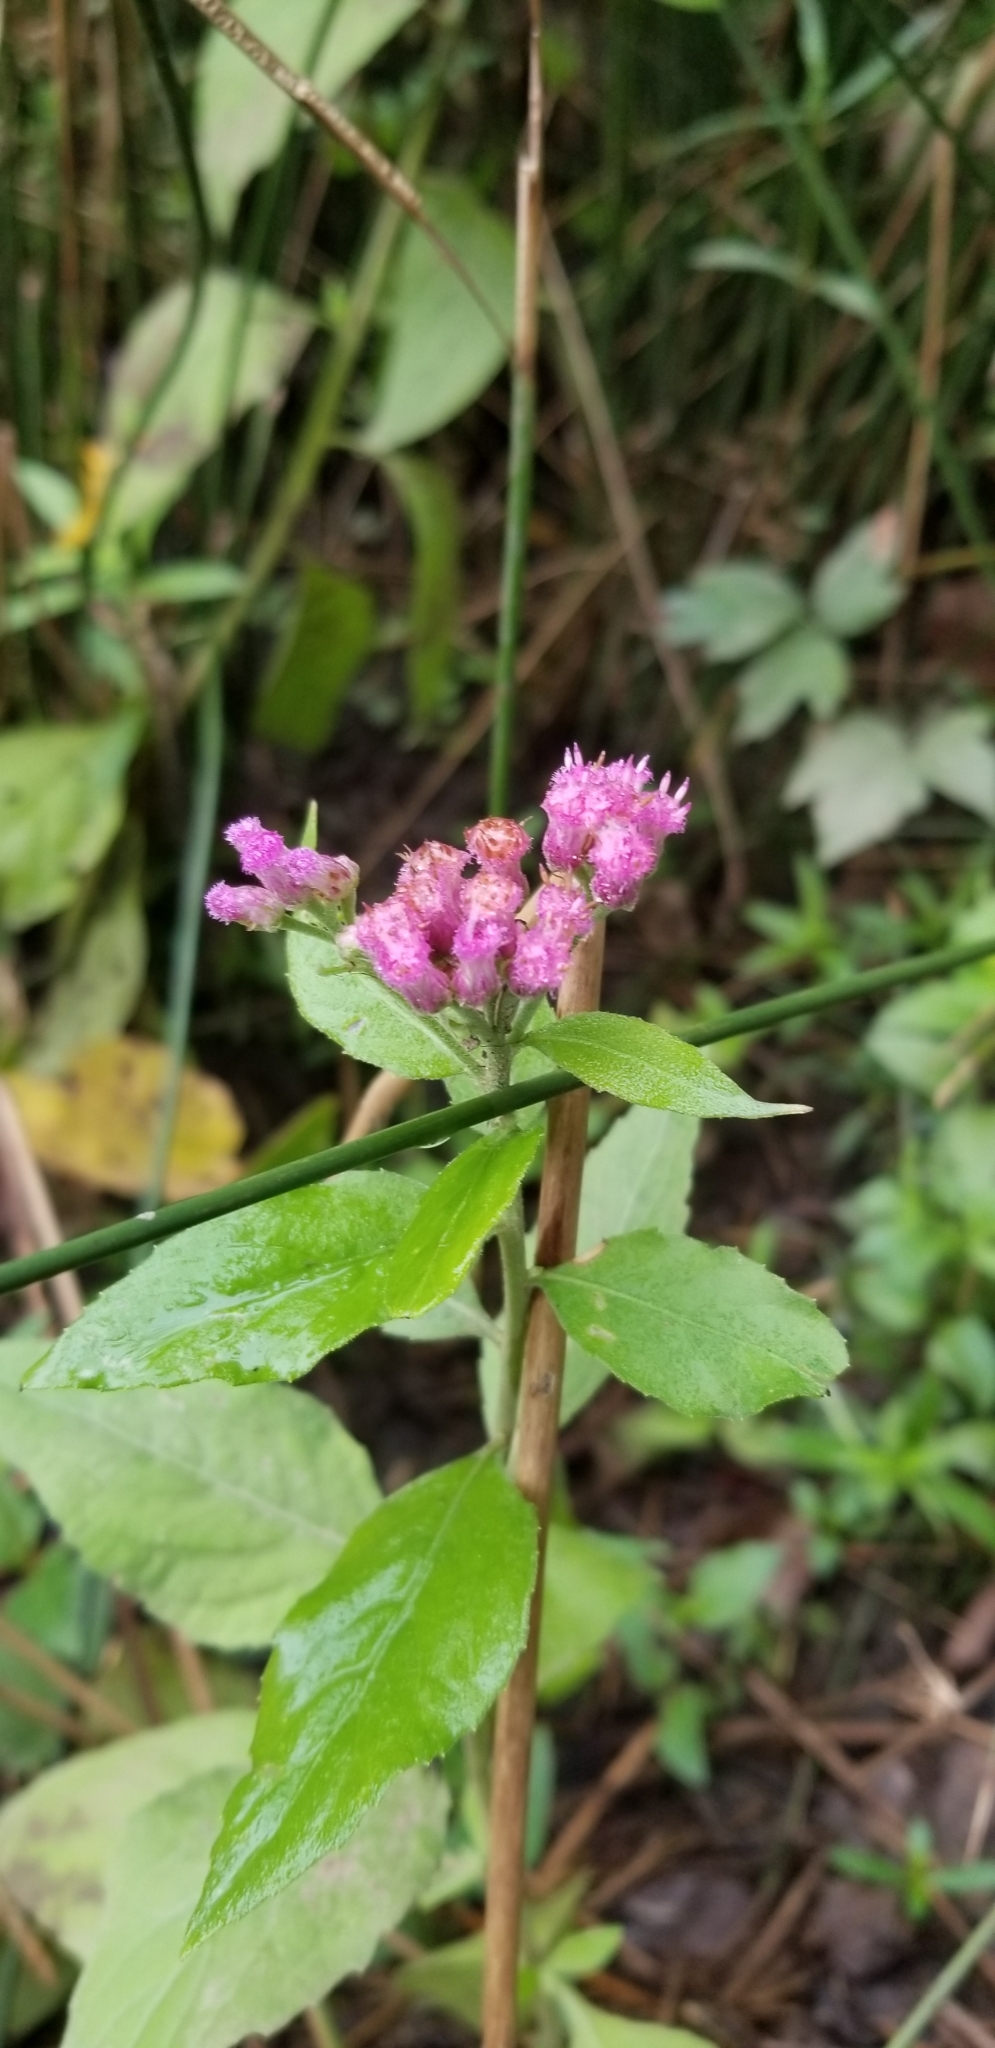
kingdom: Plantae
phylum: Tracheophyta
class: Magnoliopsida
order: Asterales
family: Asteraceae
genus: Pluchea
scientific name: Pluchea odorata
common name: Saltmarsh fleabane
